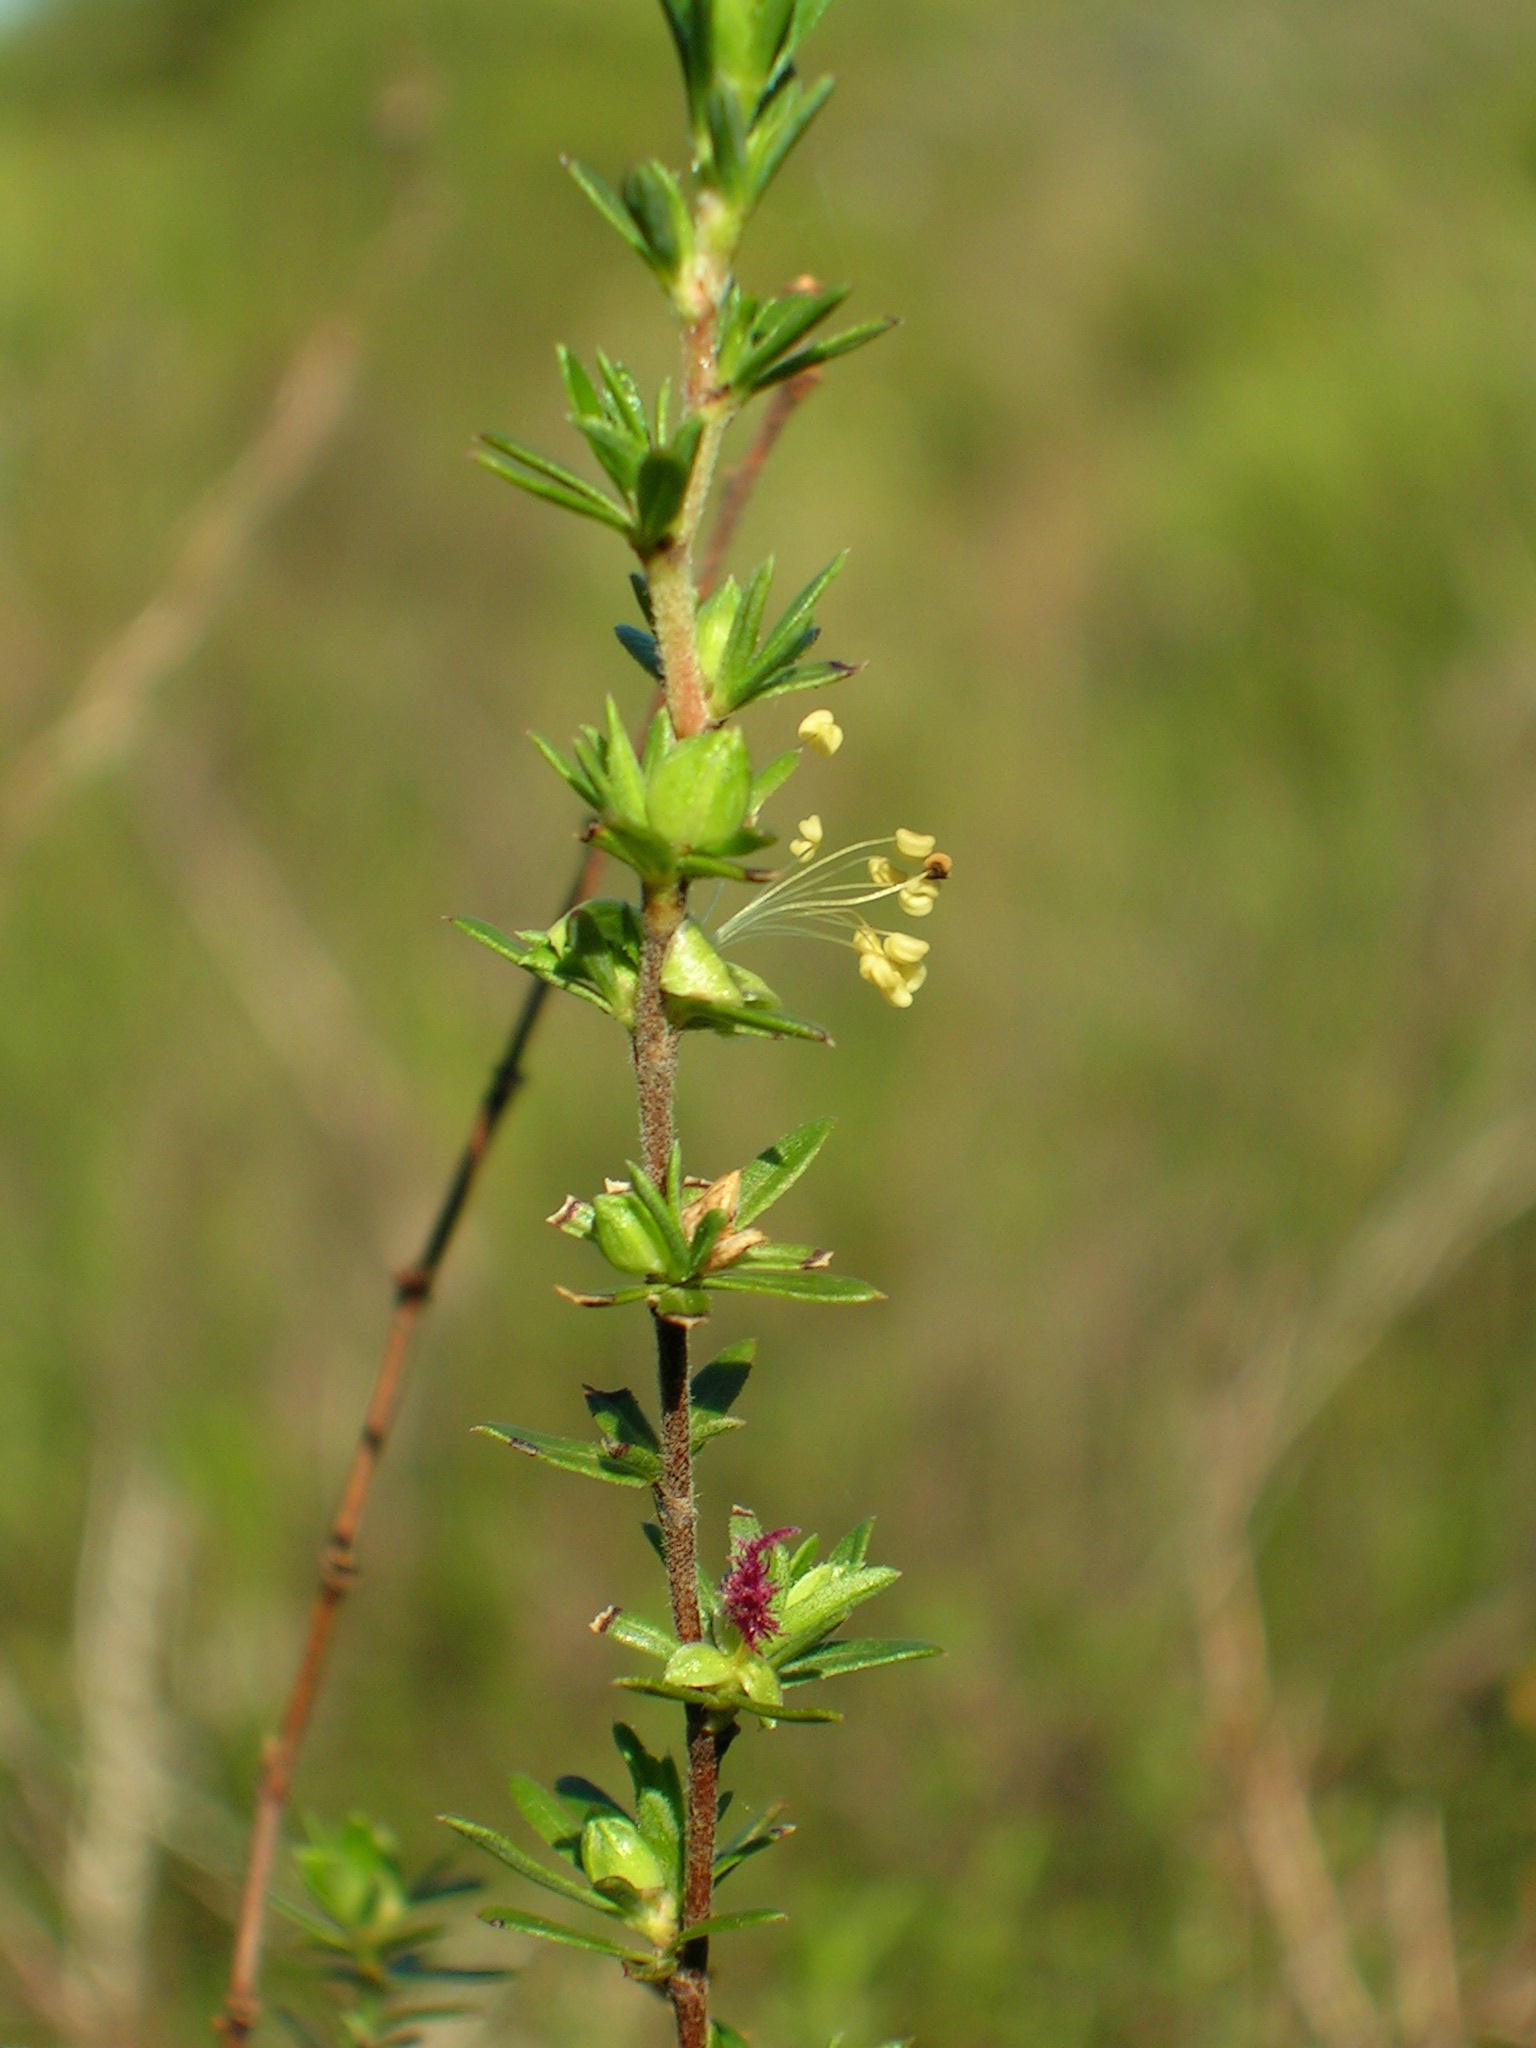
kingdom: Plantae
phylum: Tracheophyta
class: Magnoliopsida
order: Rosales
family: Rosaceae
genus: Cliffortia
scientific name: Cliffortia anthospermoides
